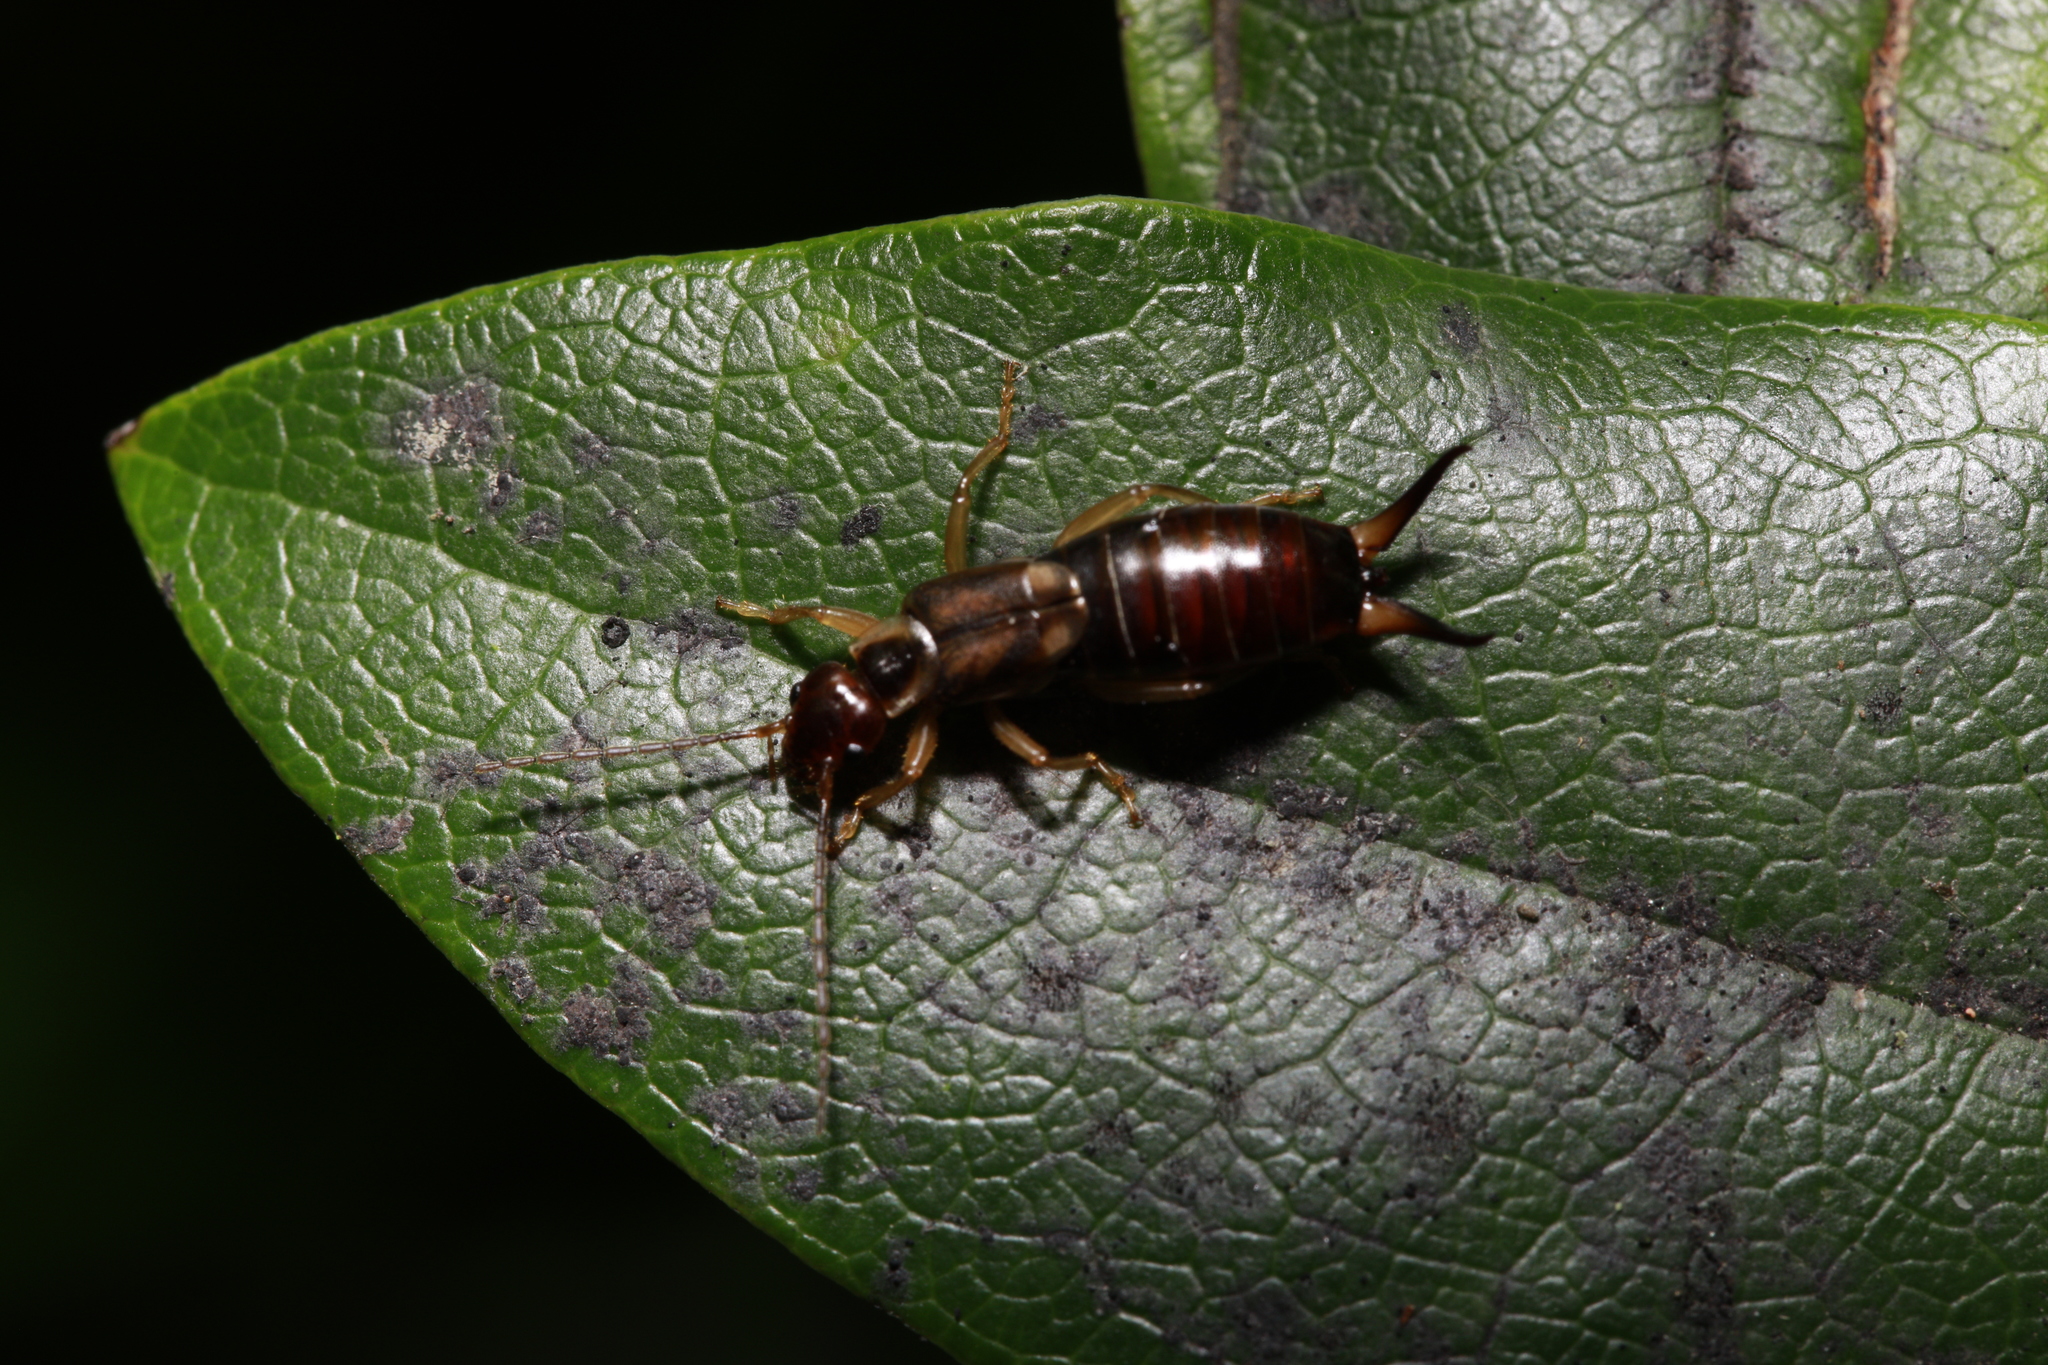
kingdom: Animalia
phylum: Arthropoda
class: Insecta
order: Dermaptera
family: Forficulidae
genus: Forficula
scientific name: Forficula
